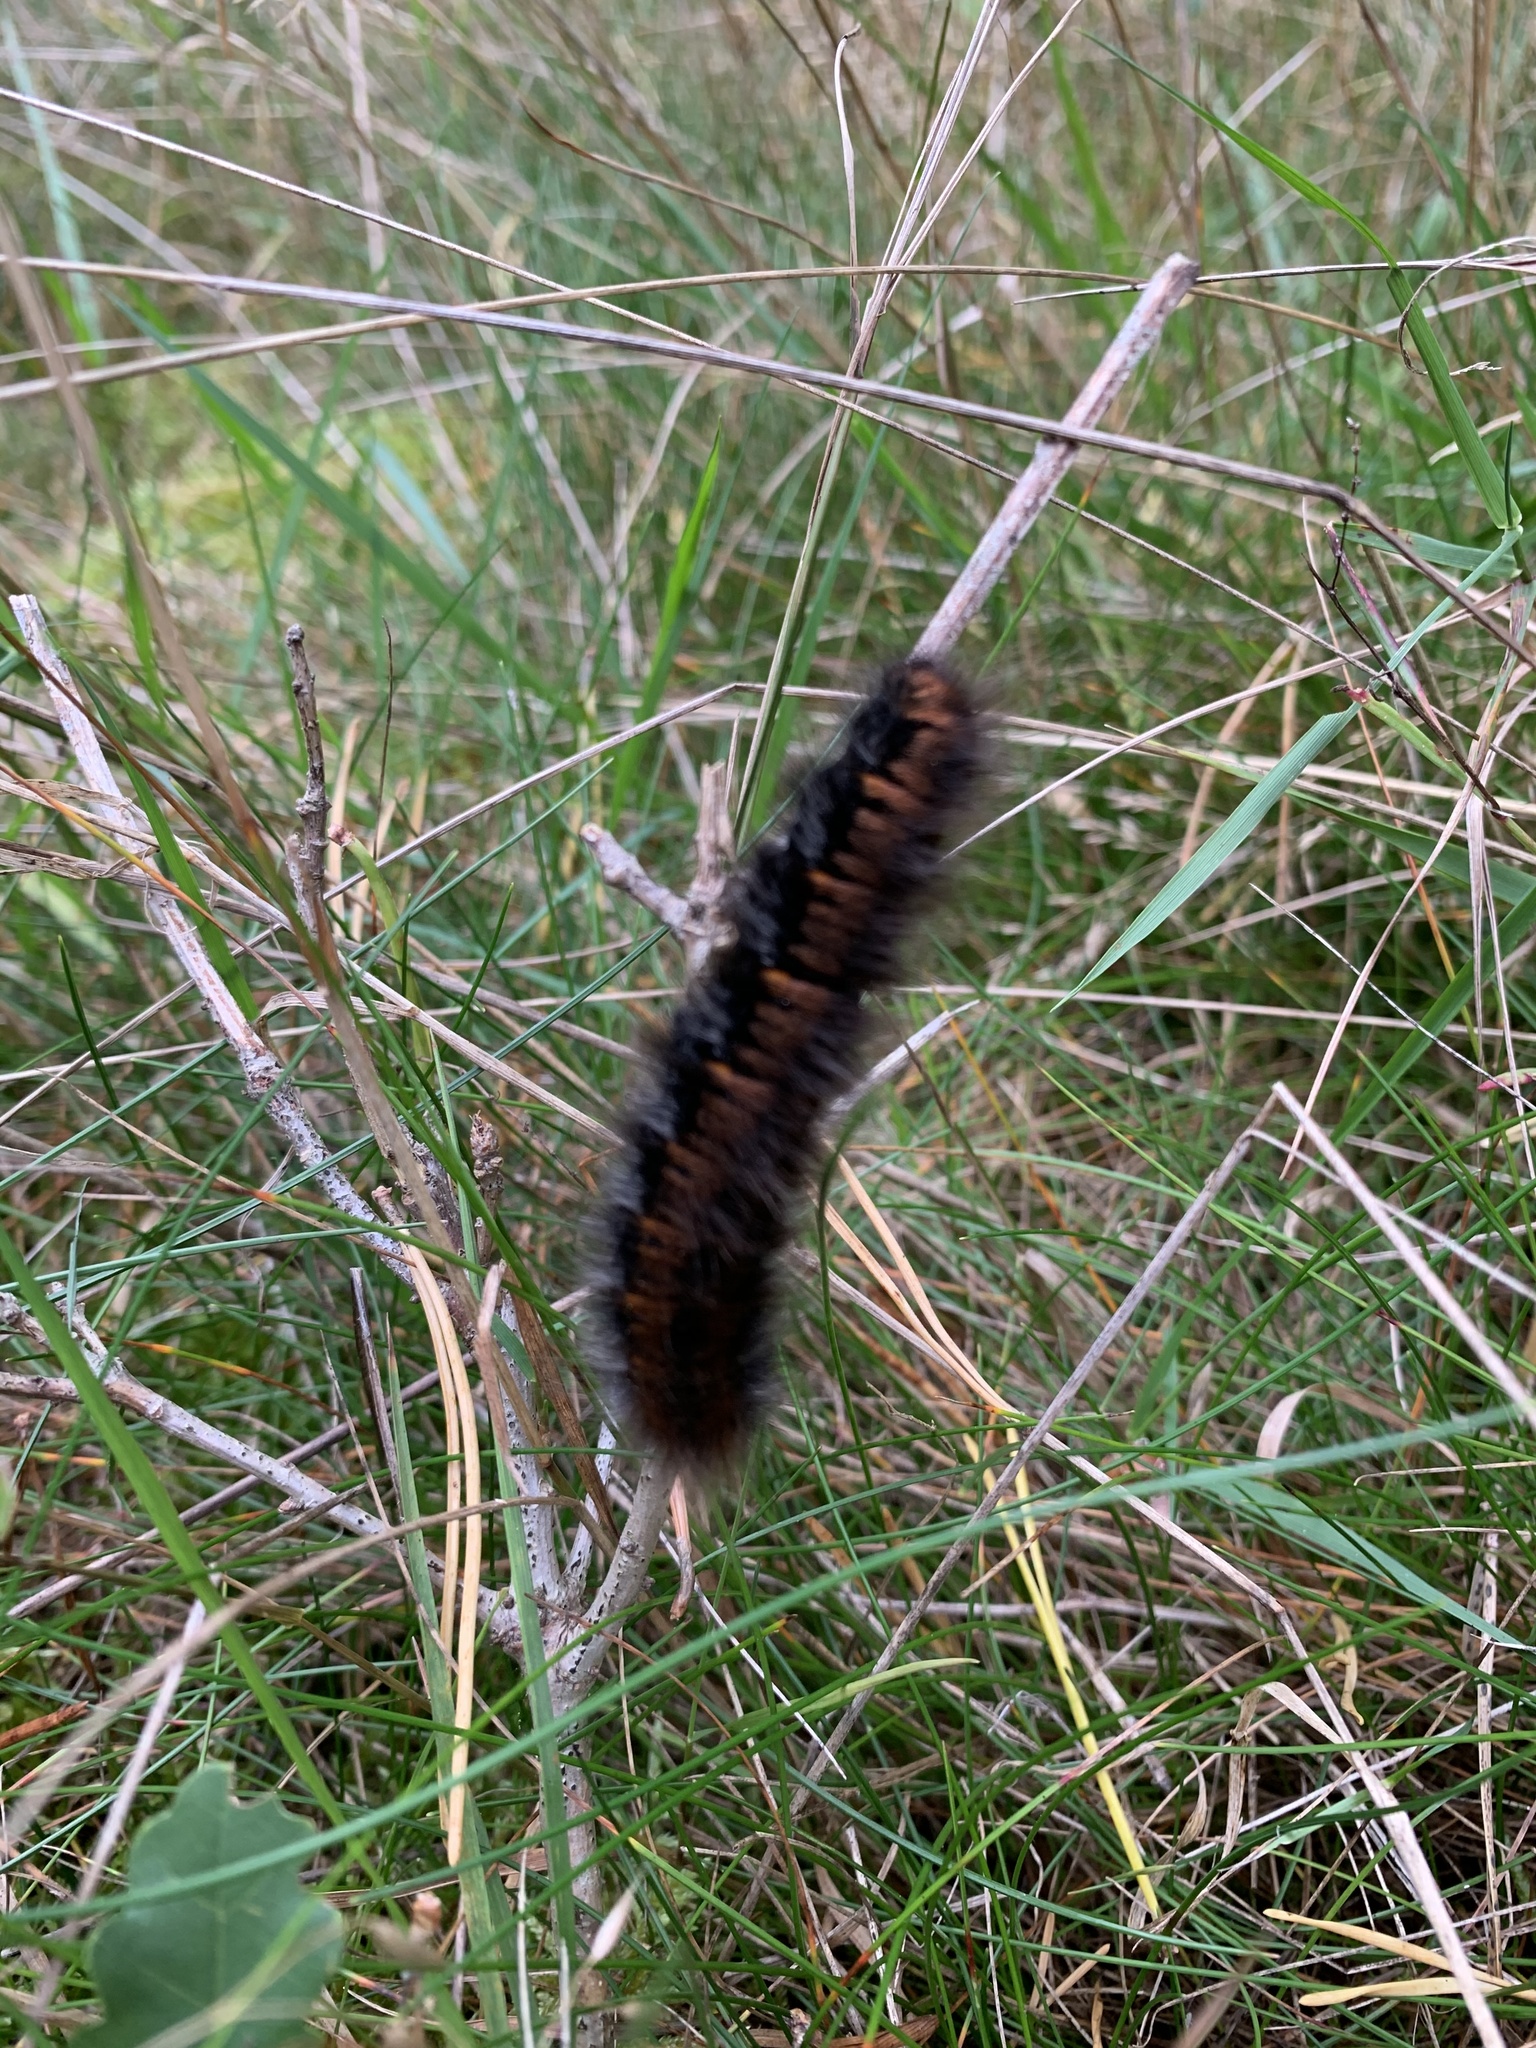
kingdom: Animalia
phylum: Arthropoda
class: Insecta
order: Lepidoptera
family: Lasiocampidae
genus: Macrothylacia
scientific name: Macrothylacia rubi
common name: Fox moth
